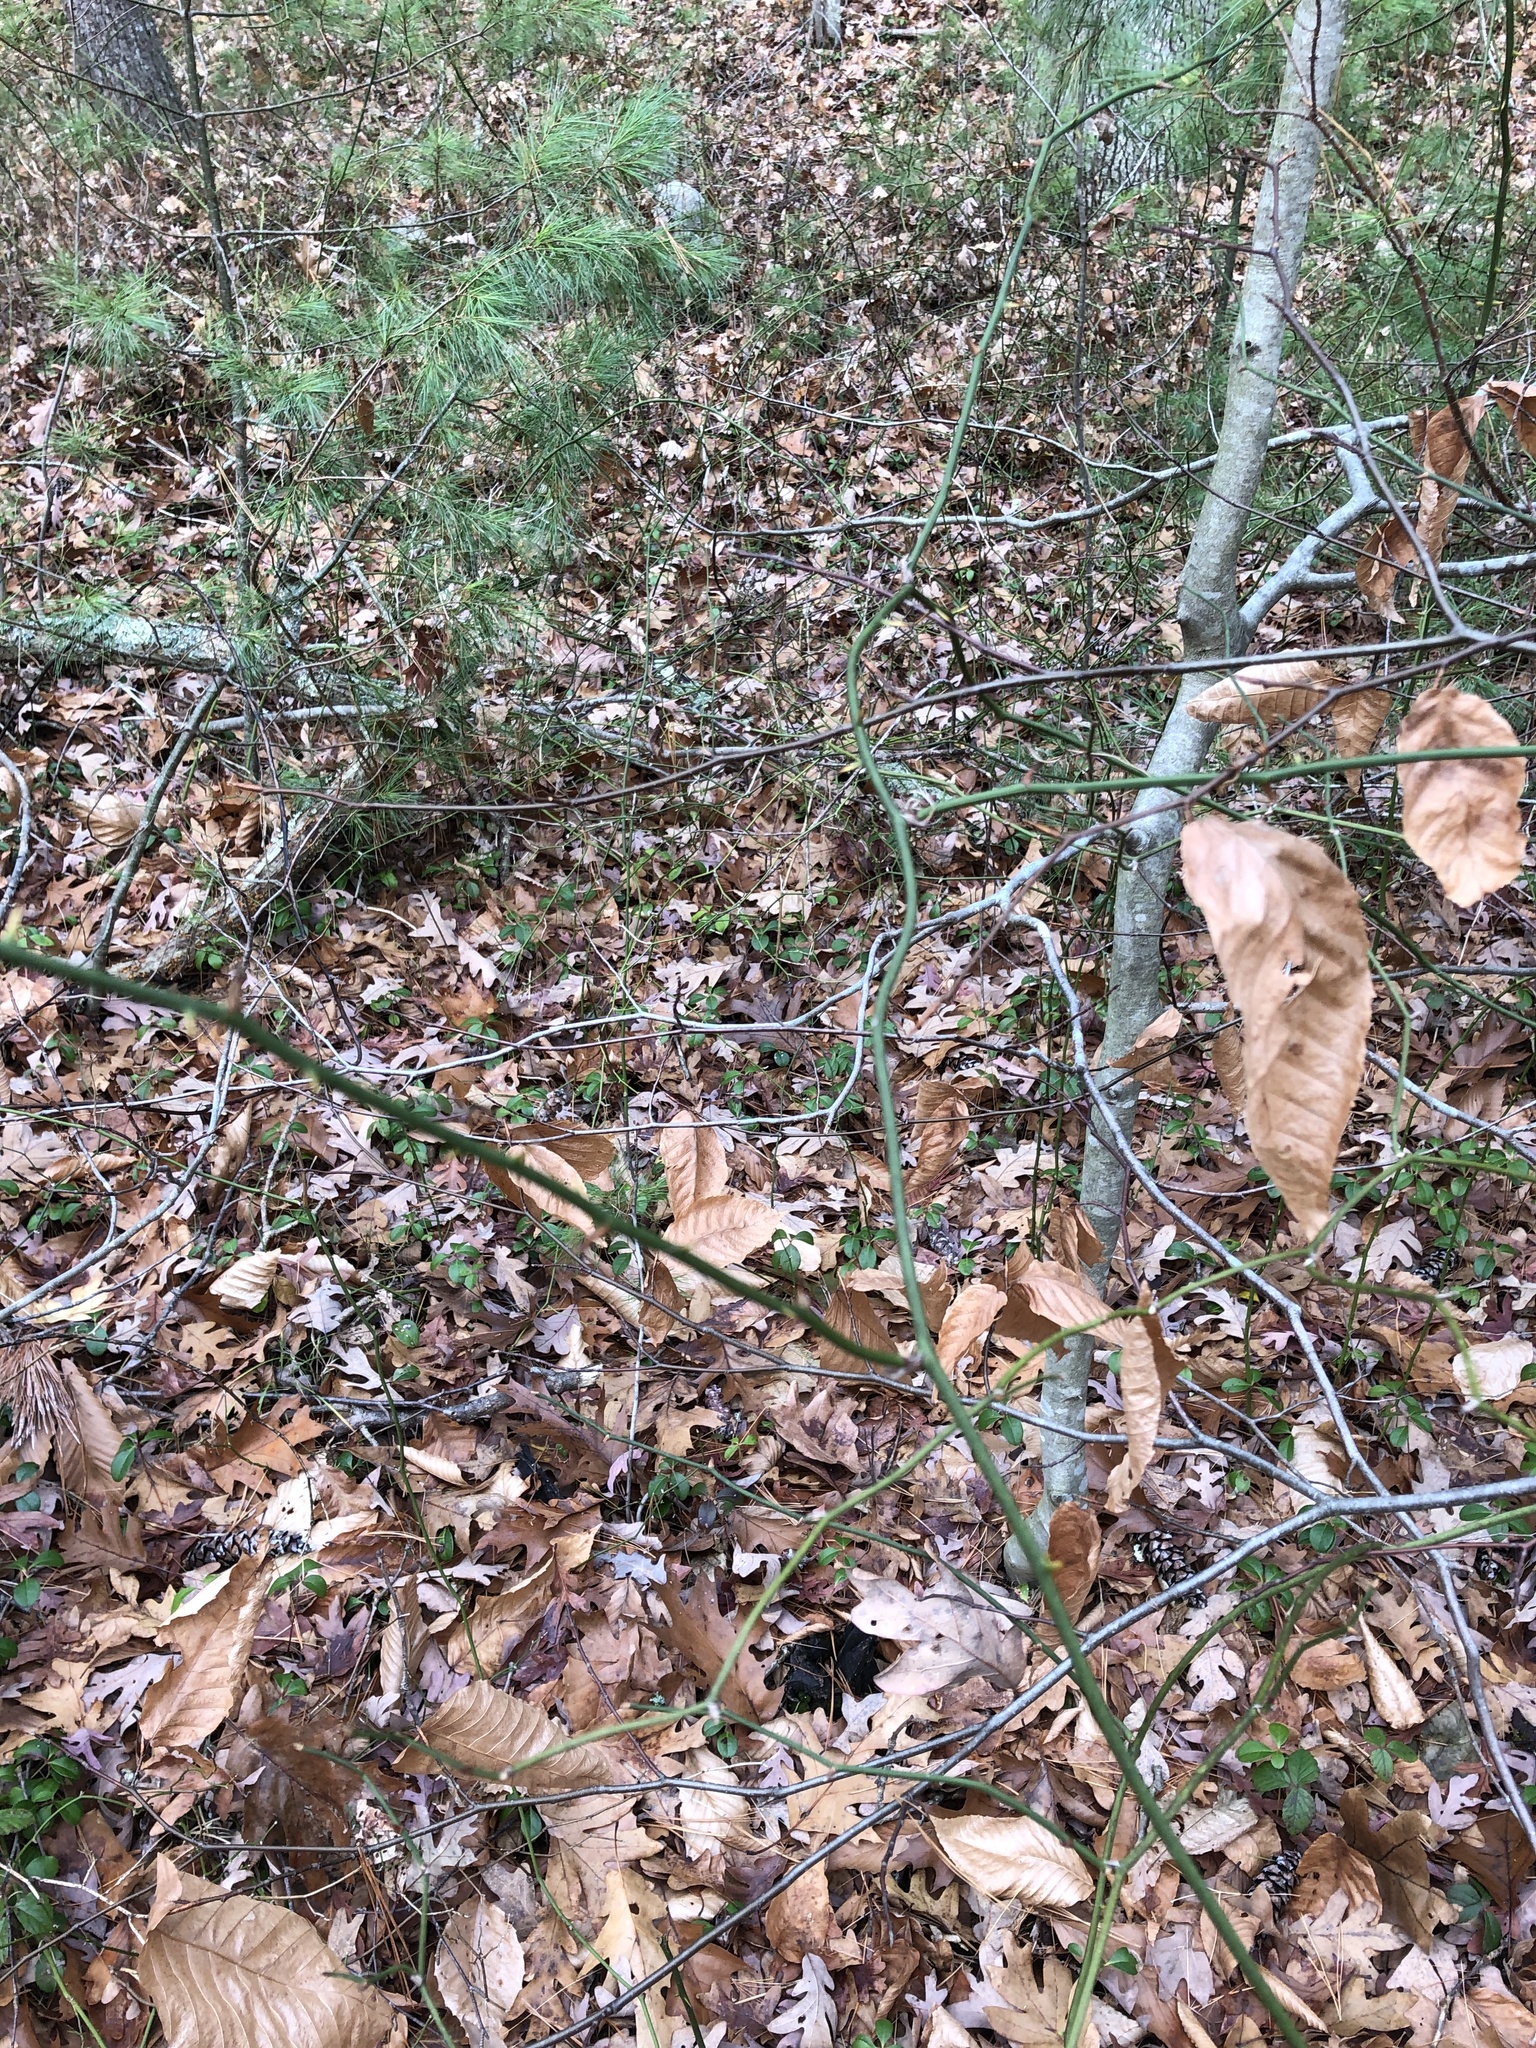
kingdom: Plantae
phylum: Tracheophyta
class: Liliopsida
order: Liliales
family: Smilacaceae
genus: Smilax
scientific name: Smilax rotundifolia
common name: Bullbriar
